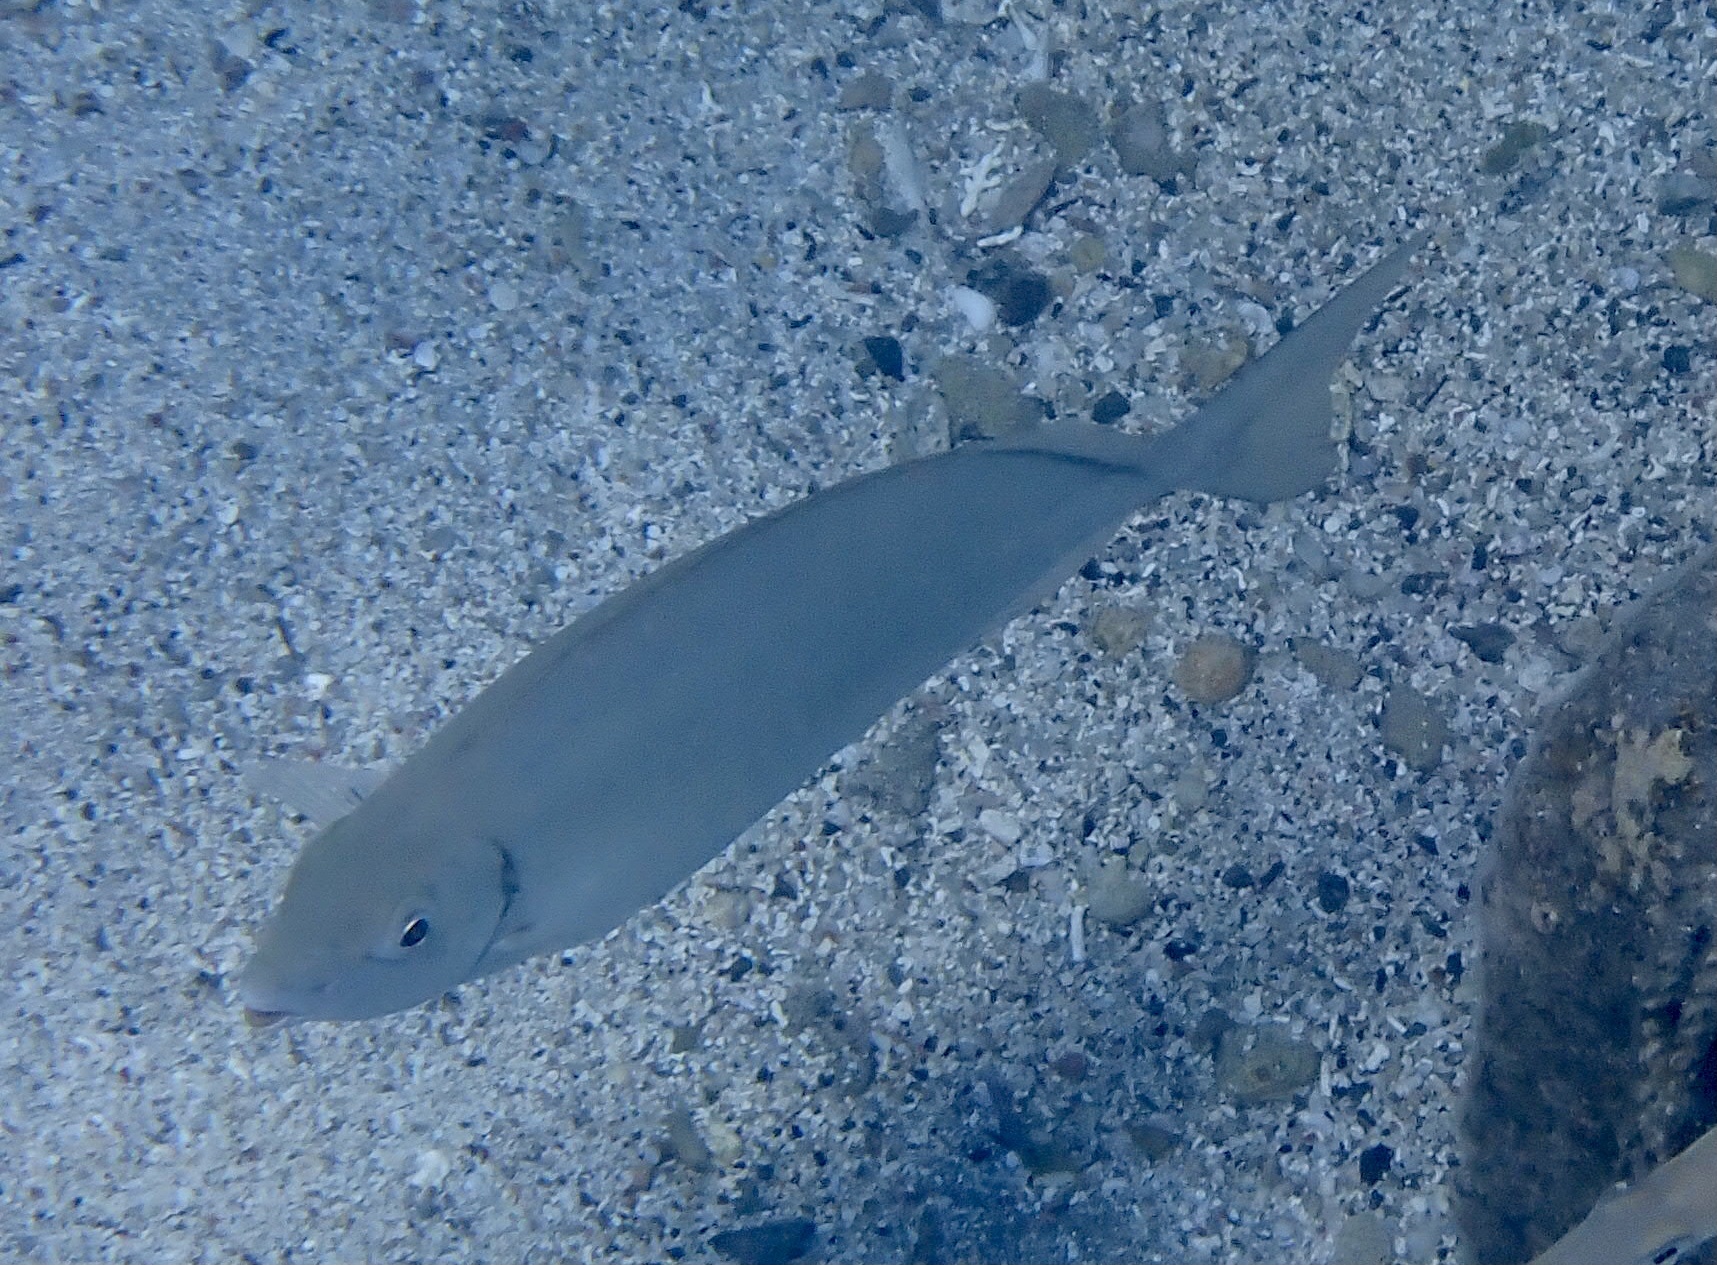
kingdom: Animalia
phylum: Chordata
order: Perciformes
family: Siganidae
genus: Siganus
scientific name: Siganus rivulatus
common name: Marbled spinefoot
